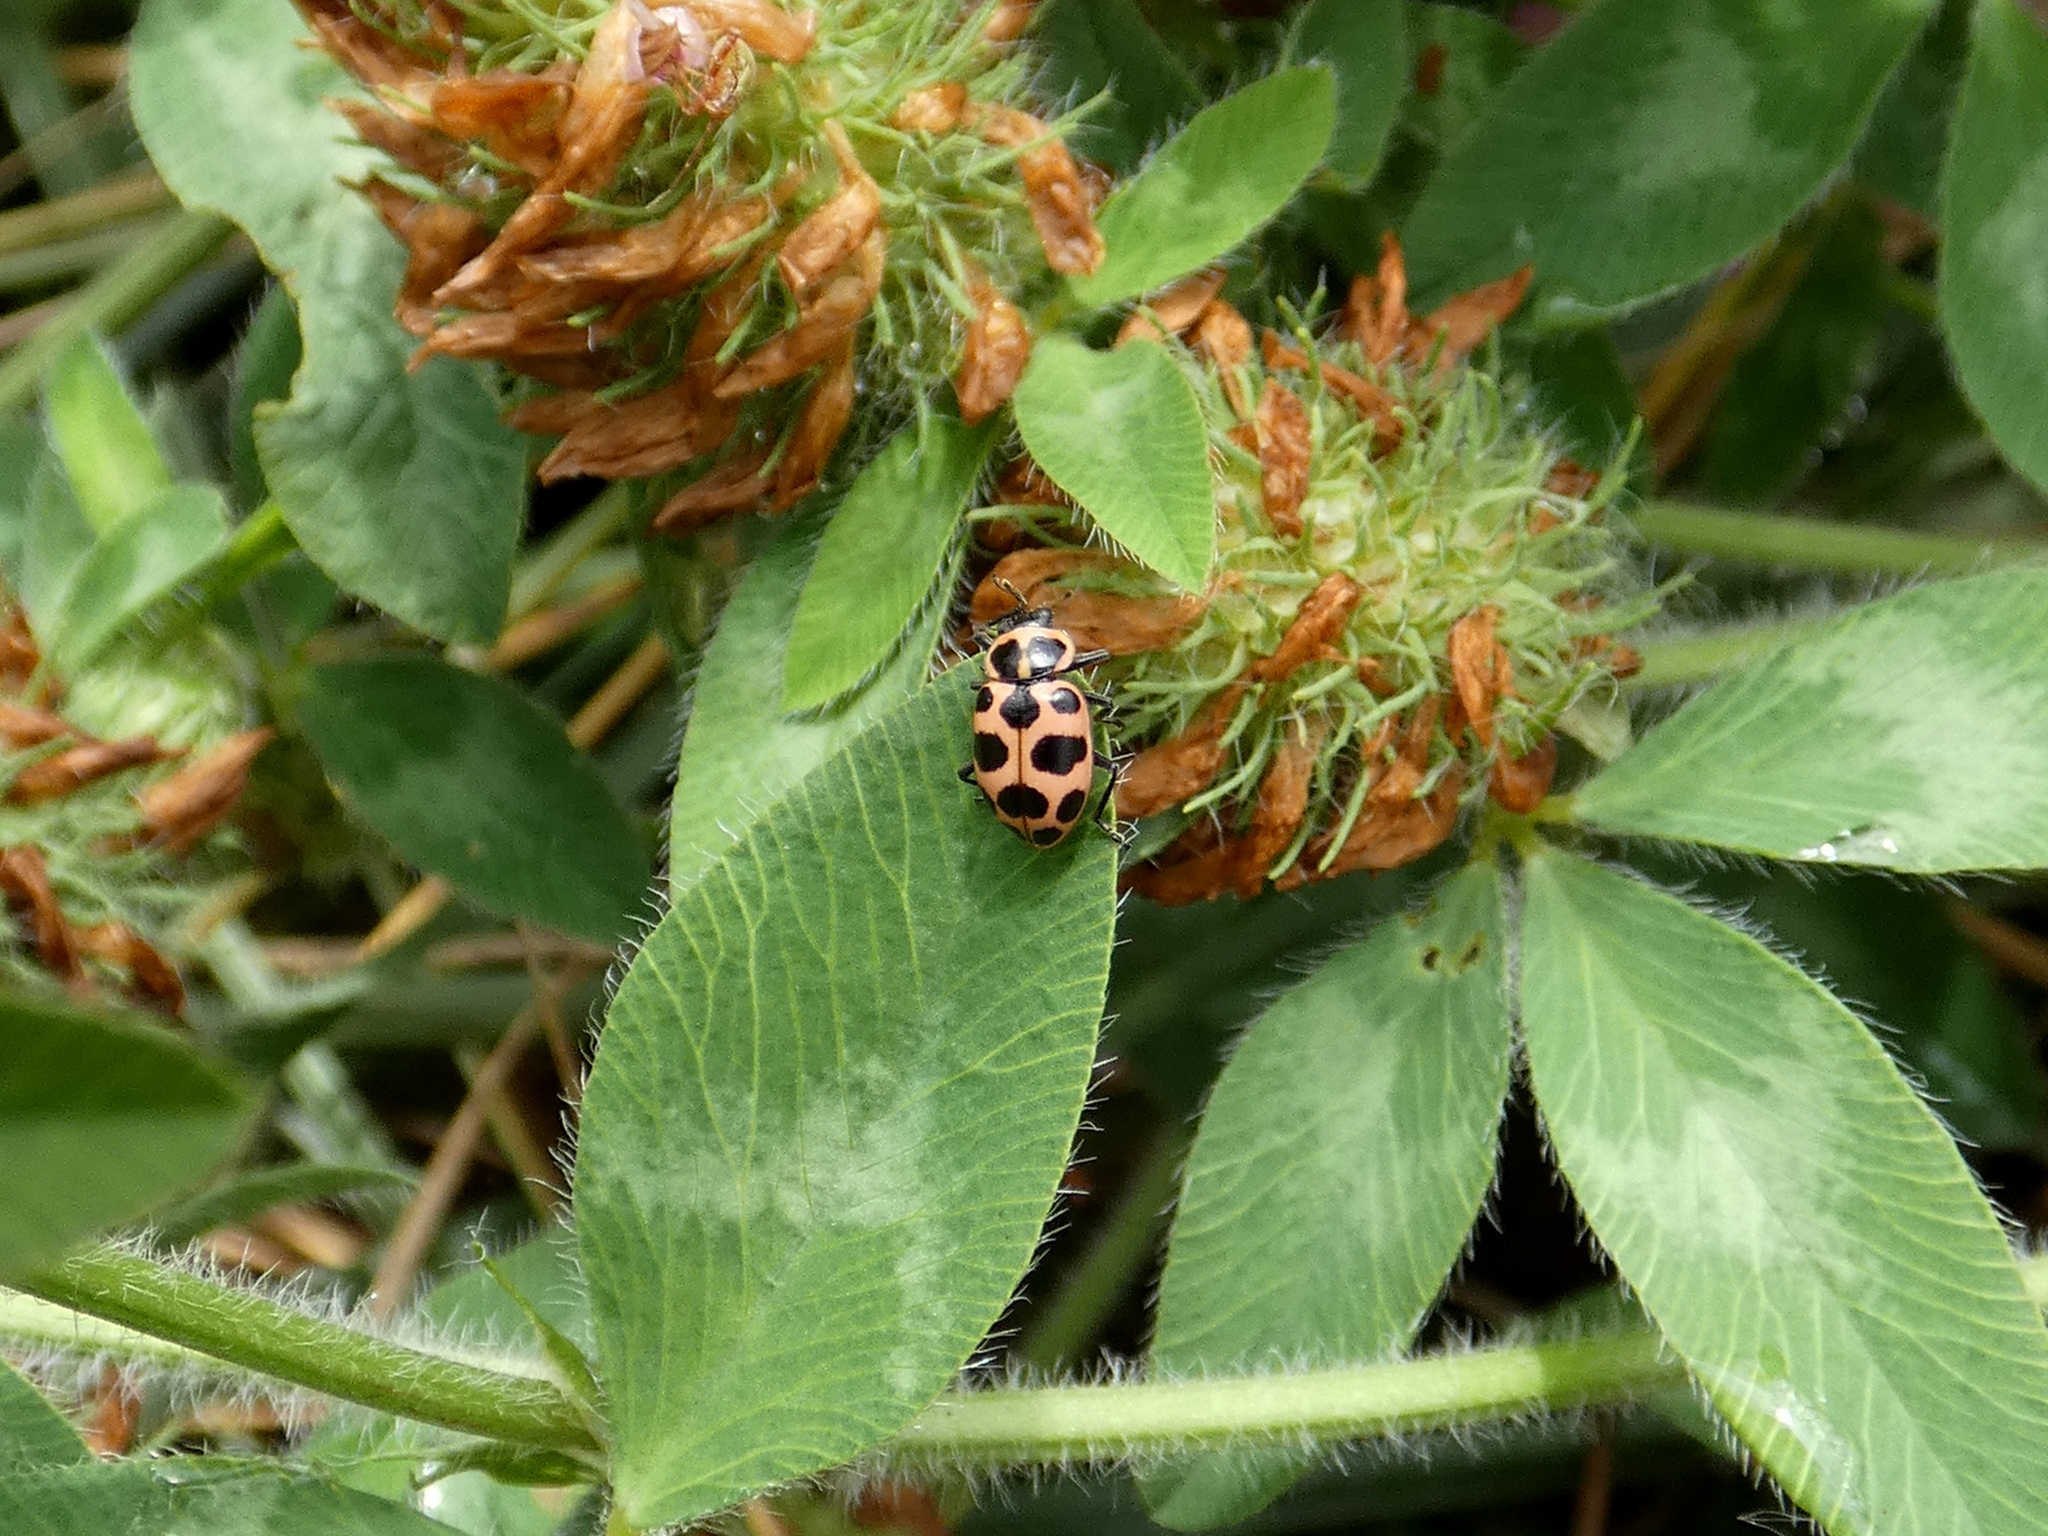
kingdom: Animalia
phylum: Arthropoda
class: Insecta
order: Coleoptera
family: Coccinellidae
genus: Coleomegilla
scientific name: Coleomegilla maculata
